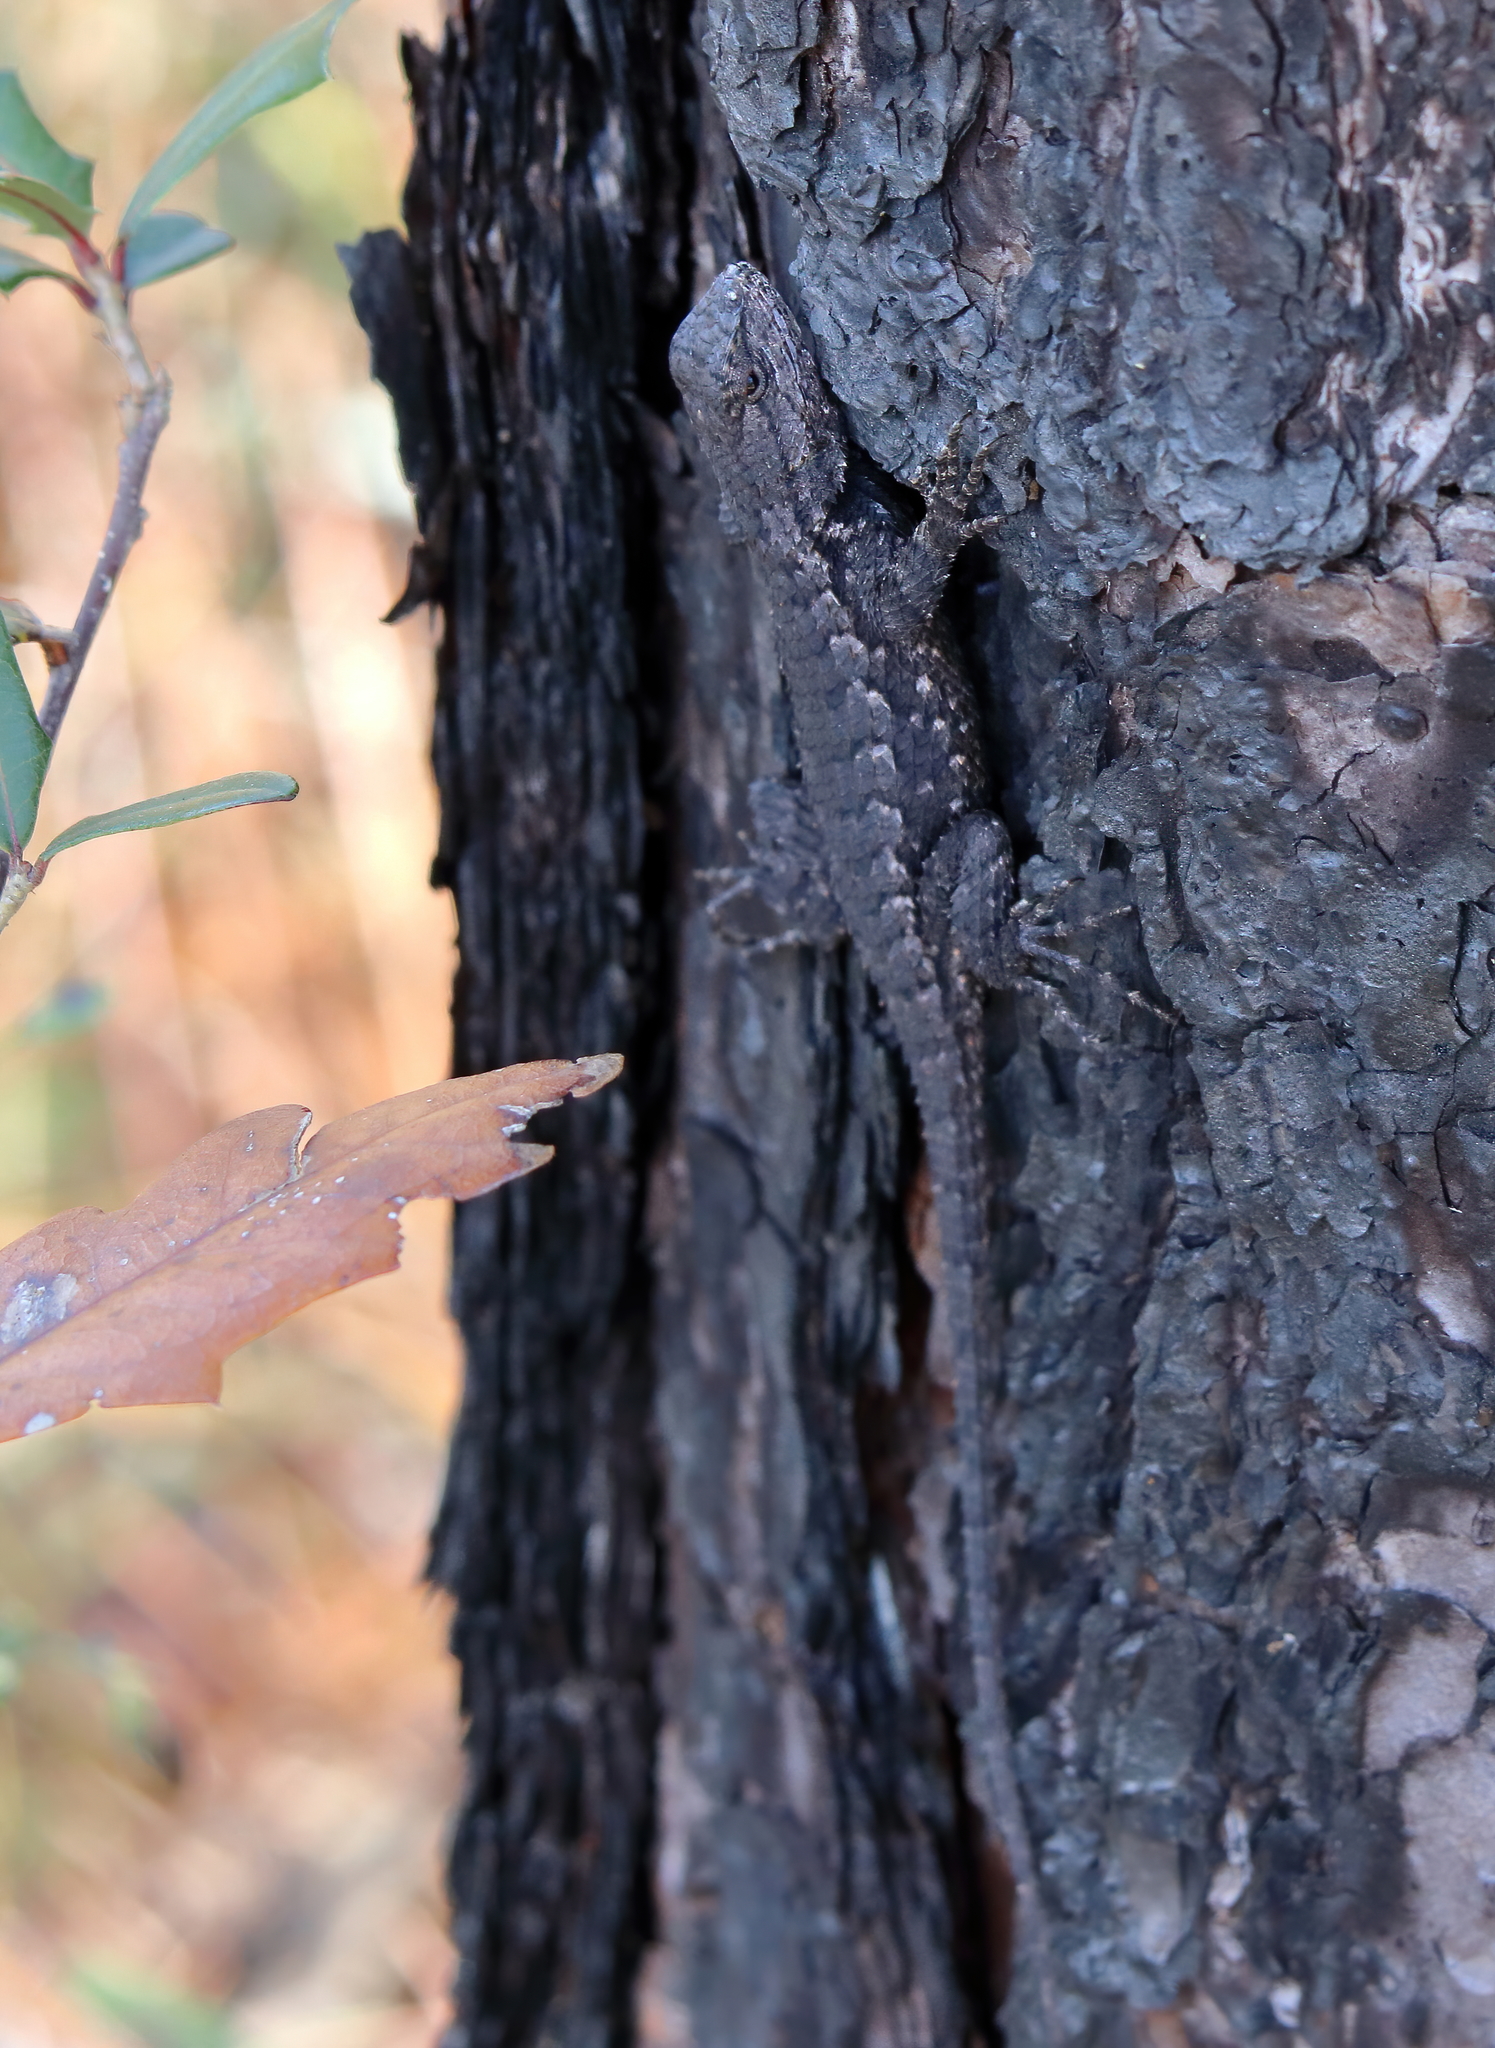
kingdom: Animalia
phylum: Chordata
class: Squamata
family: Phrynosomatidae
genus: Sceloporus
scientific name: Sceloporus undulatus
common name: Eastern fence lizard
